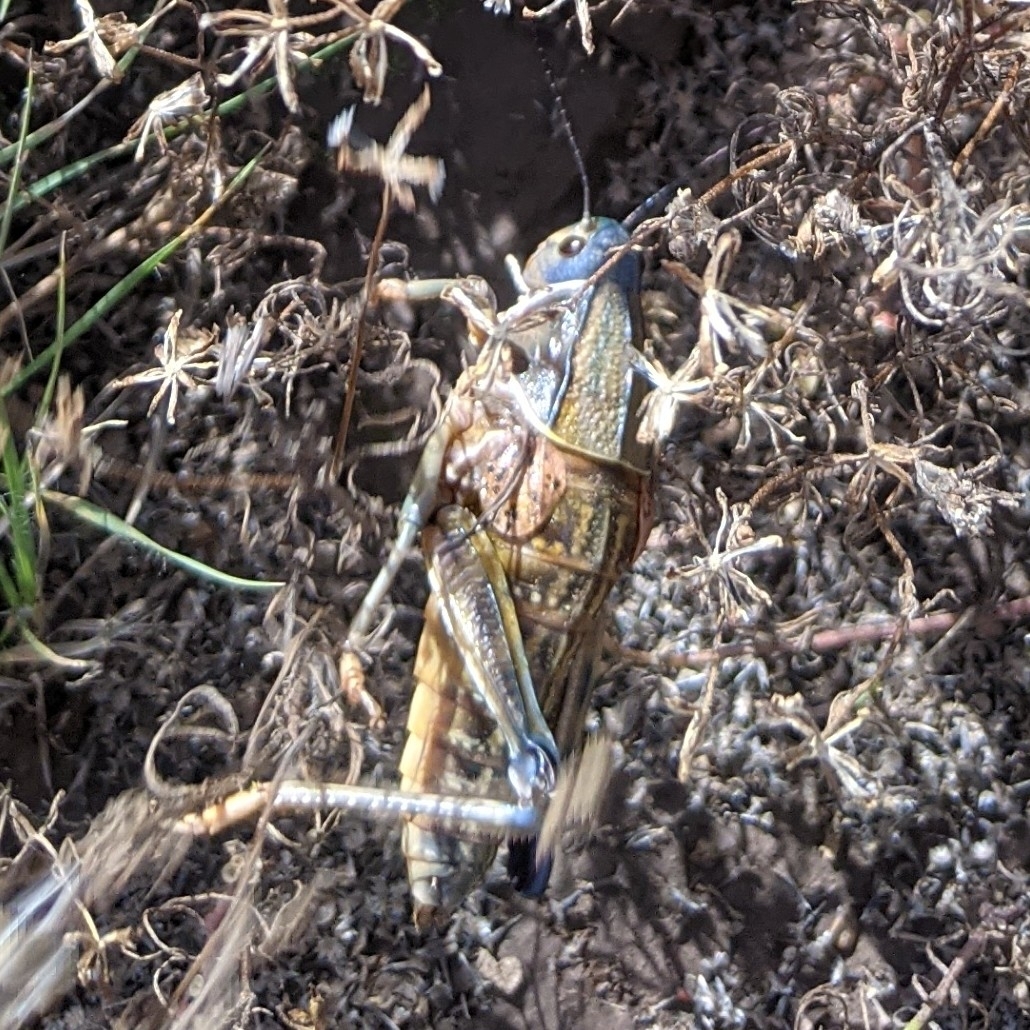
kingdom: Animalia
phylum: Arthropoda
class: Insecta
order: Orthoptera
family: Romaleidae
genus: Brachystola
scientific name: Brachystola magna
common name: Plains lubber grasshopper
